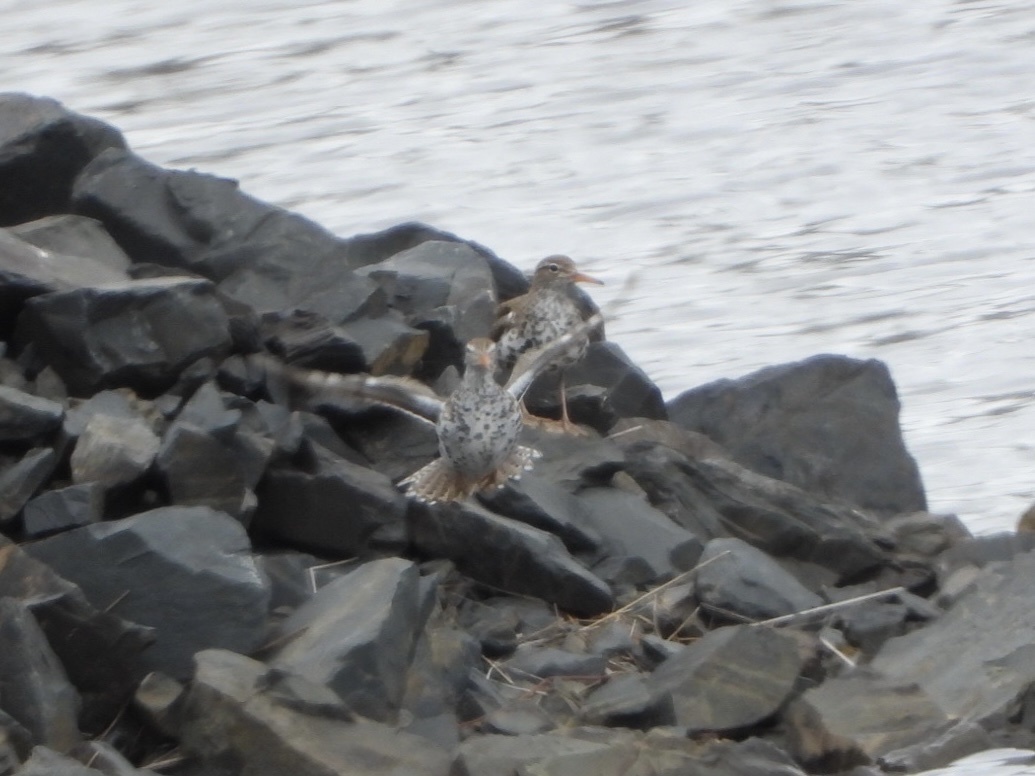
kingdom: Animalia
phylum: Chordata
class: Aves
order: Charadriiformes
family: Scolopacidae
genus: Actitis
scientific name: Actitis macularius
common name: Spotted sandpiper
